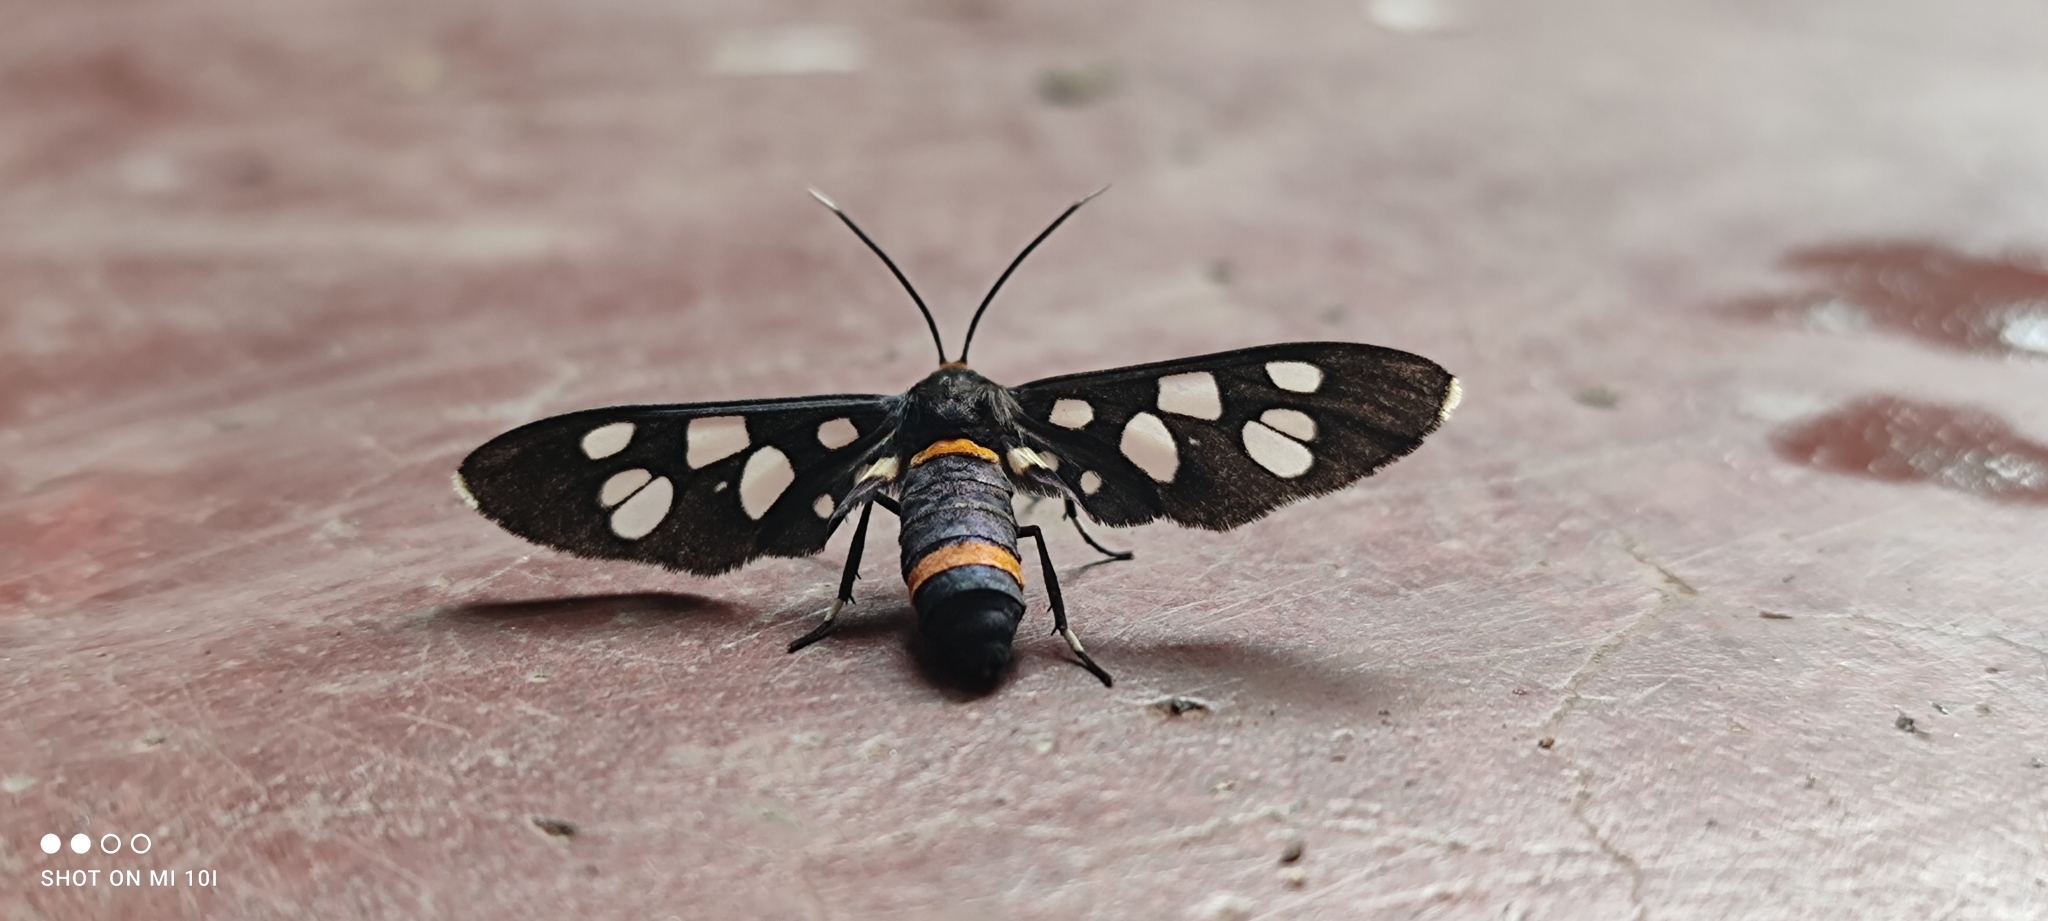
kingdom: Animalia
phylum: Arthropoda
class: Insecta
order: Lepidoptera
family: Erebidae
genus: Amata
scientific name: Amata cyssea
